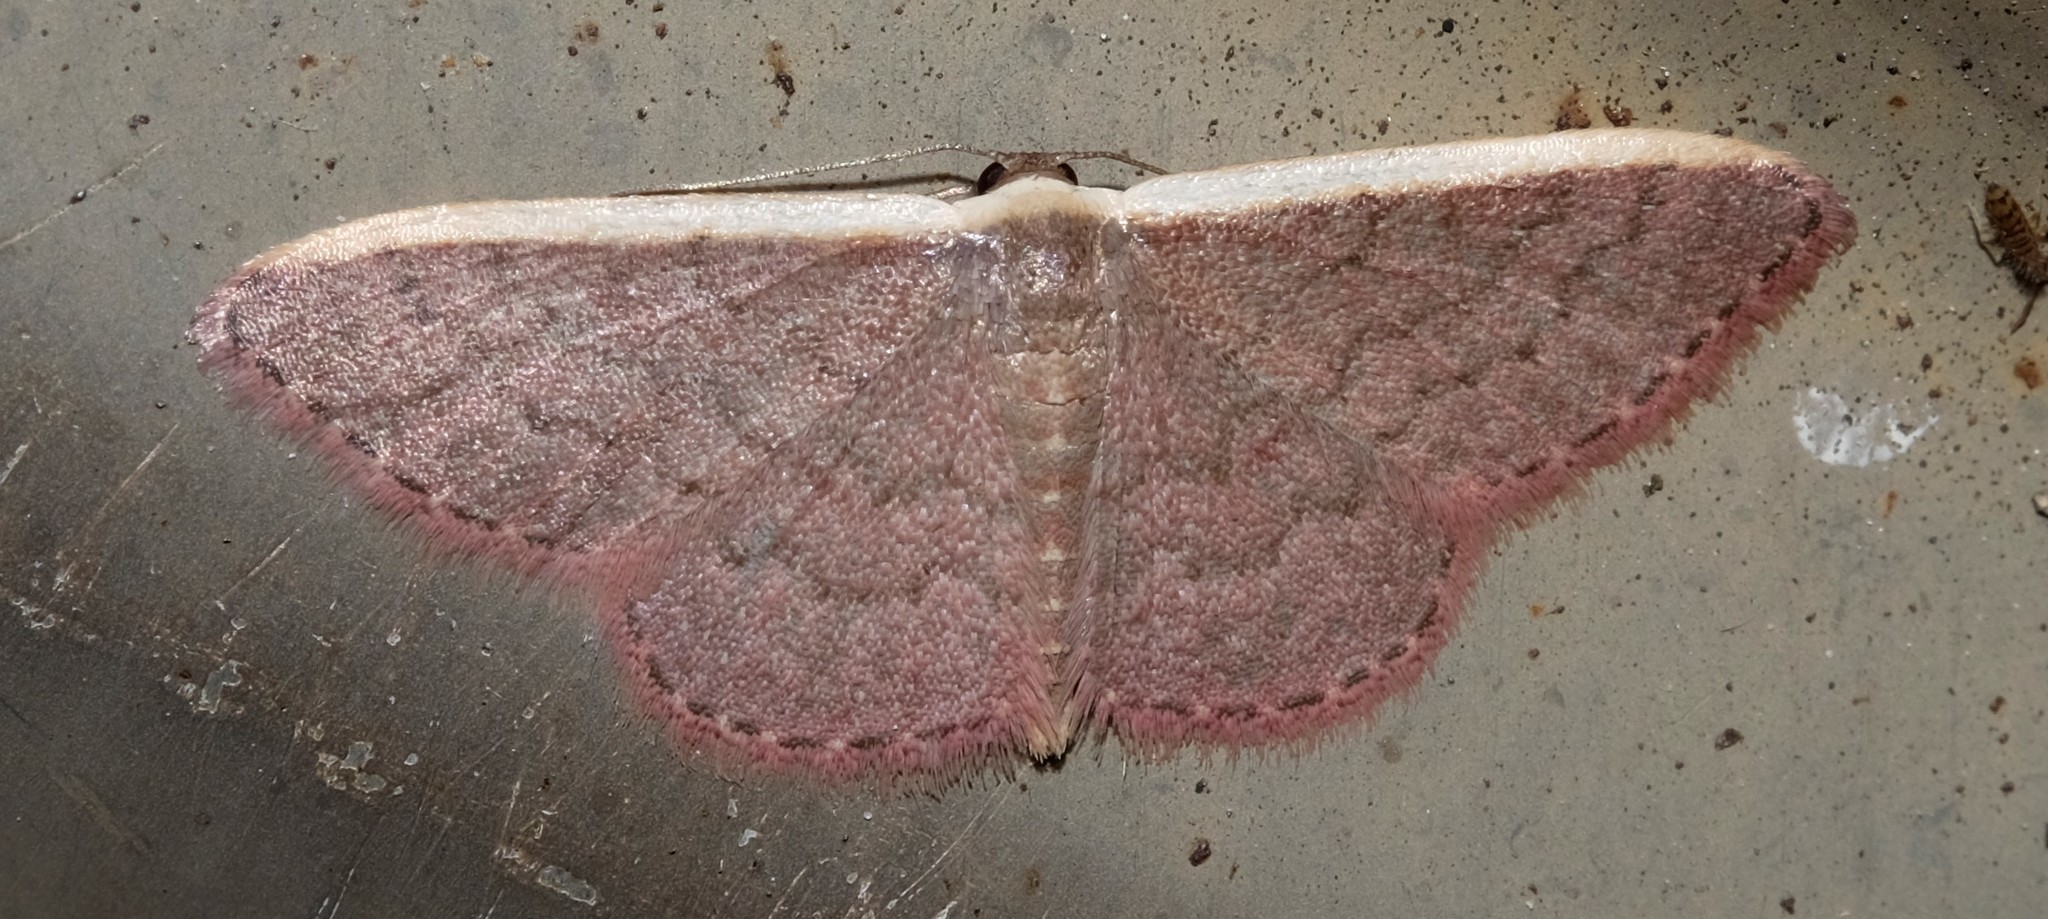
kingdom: Animalia
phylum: Arthropoda
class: Insecta
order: Lepidoptera
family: Geometridae
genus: Idaea
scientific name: Idaea inversata
